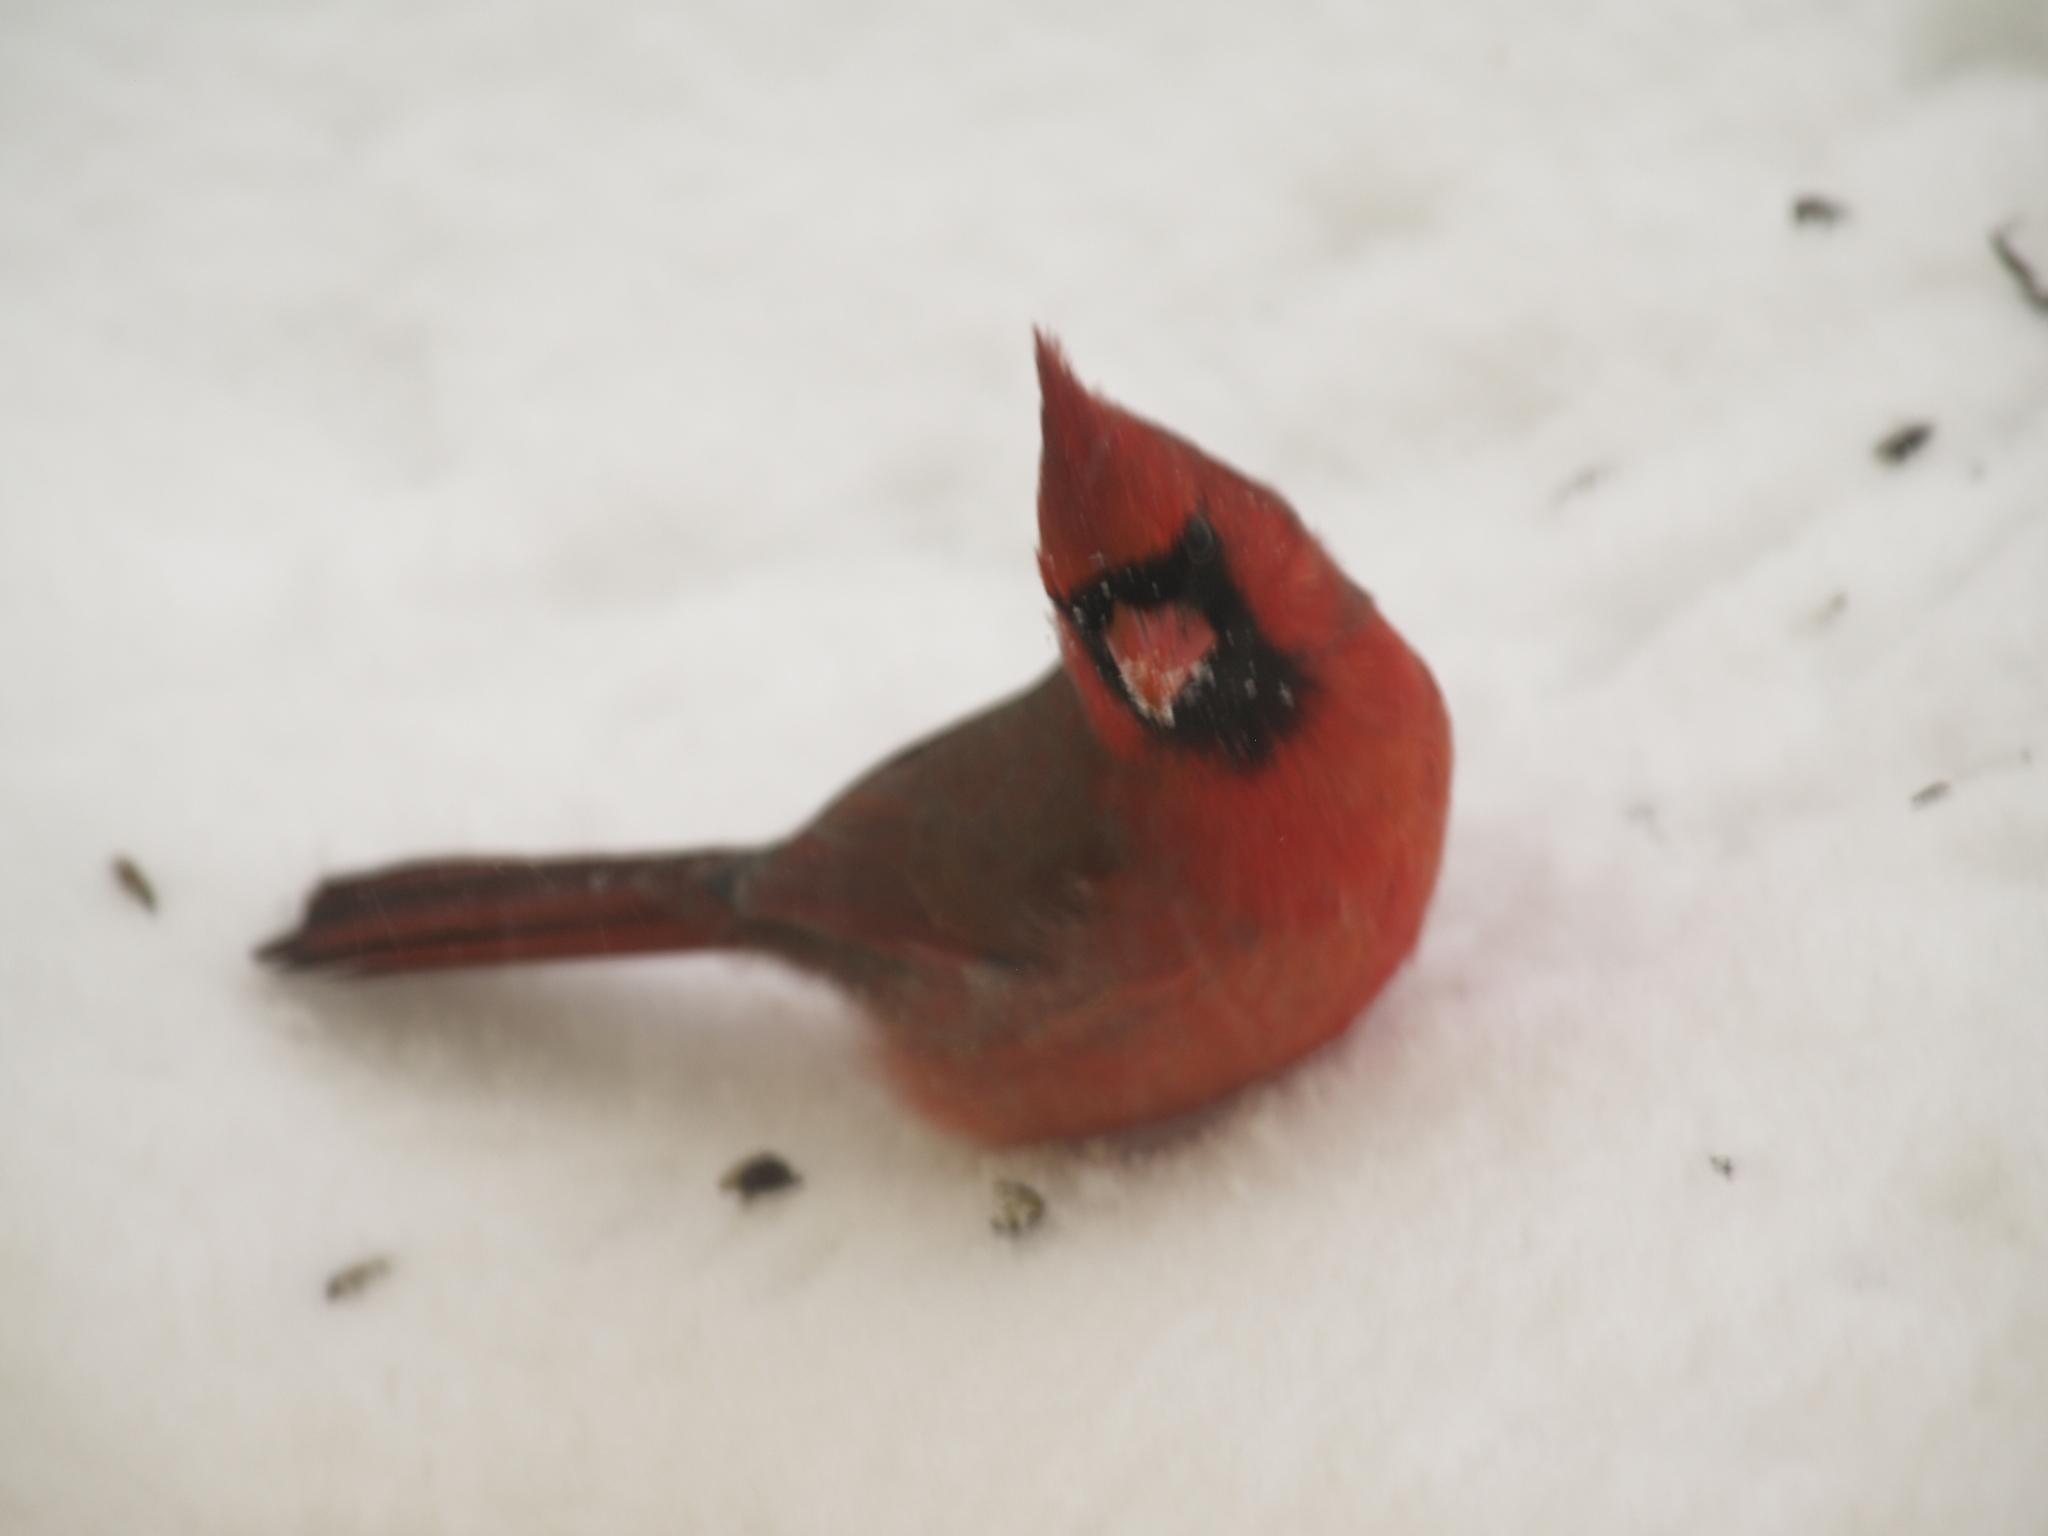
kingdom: Animalia
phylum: Chordata
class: Aves
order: Passeriformes
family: Cardinalidae
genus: Cardinalis
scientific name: Cardinalis cardinalis
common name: Northern cardinal
